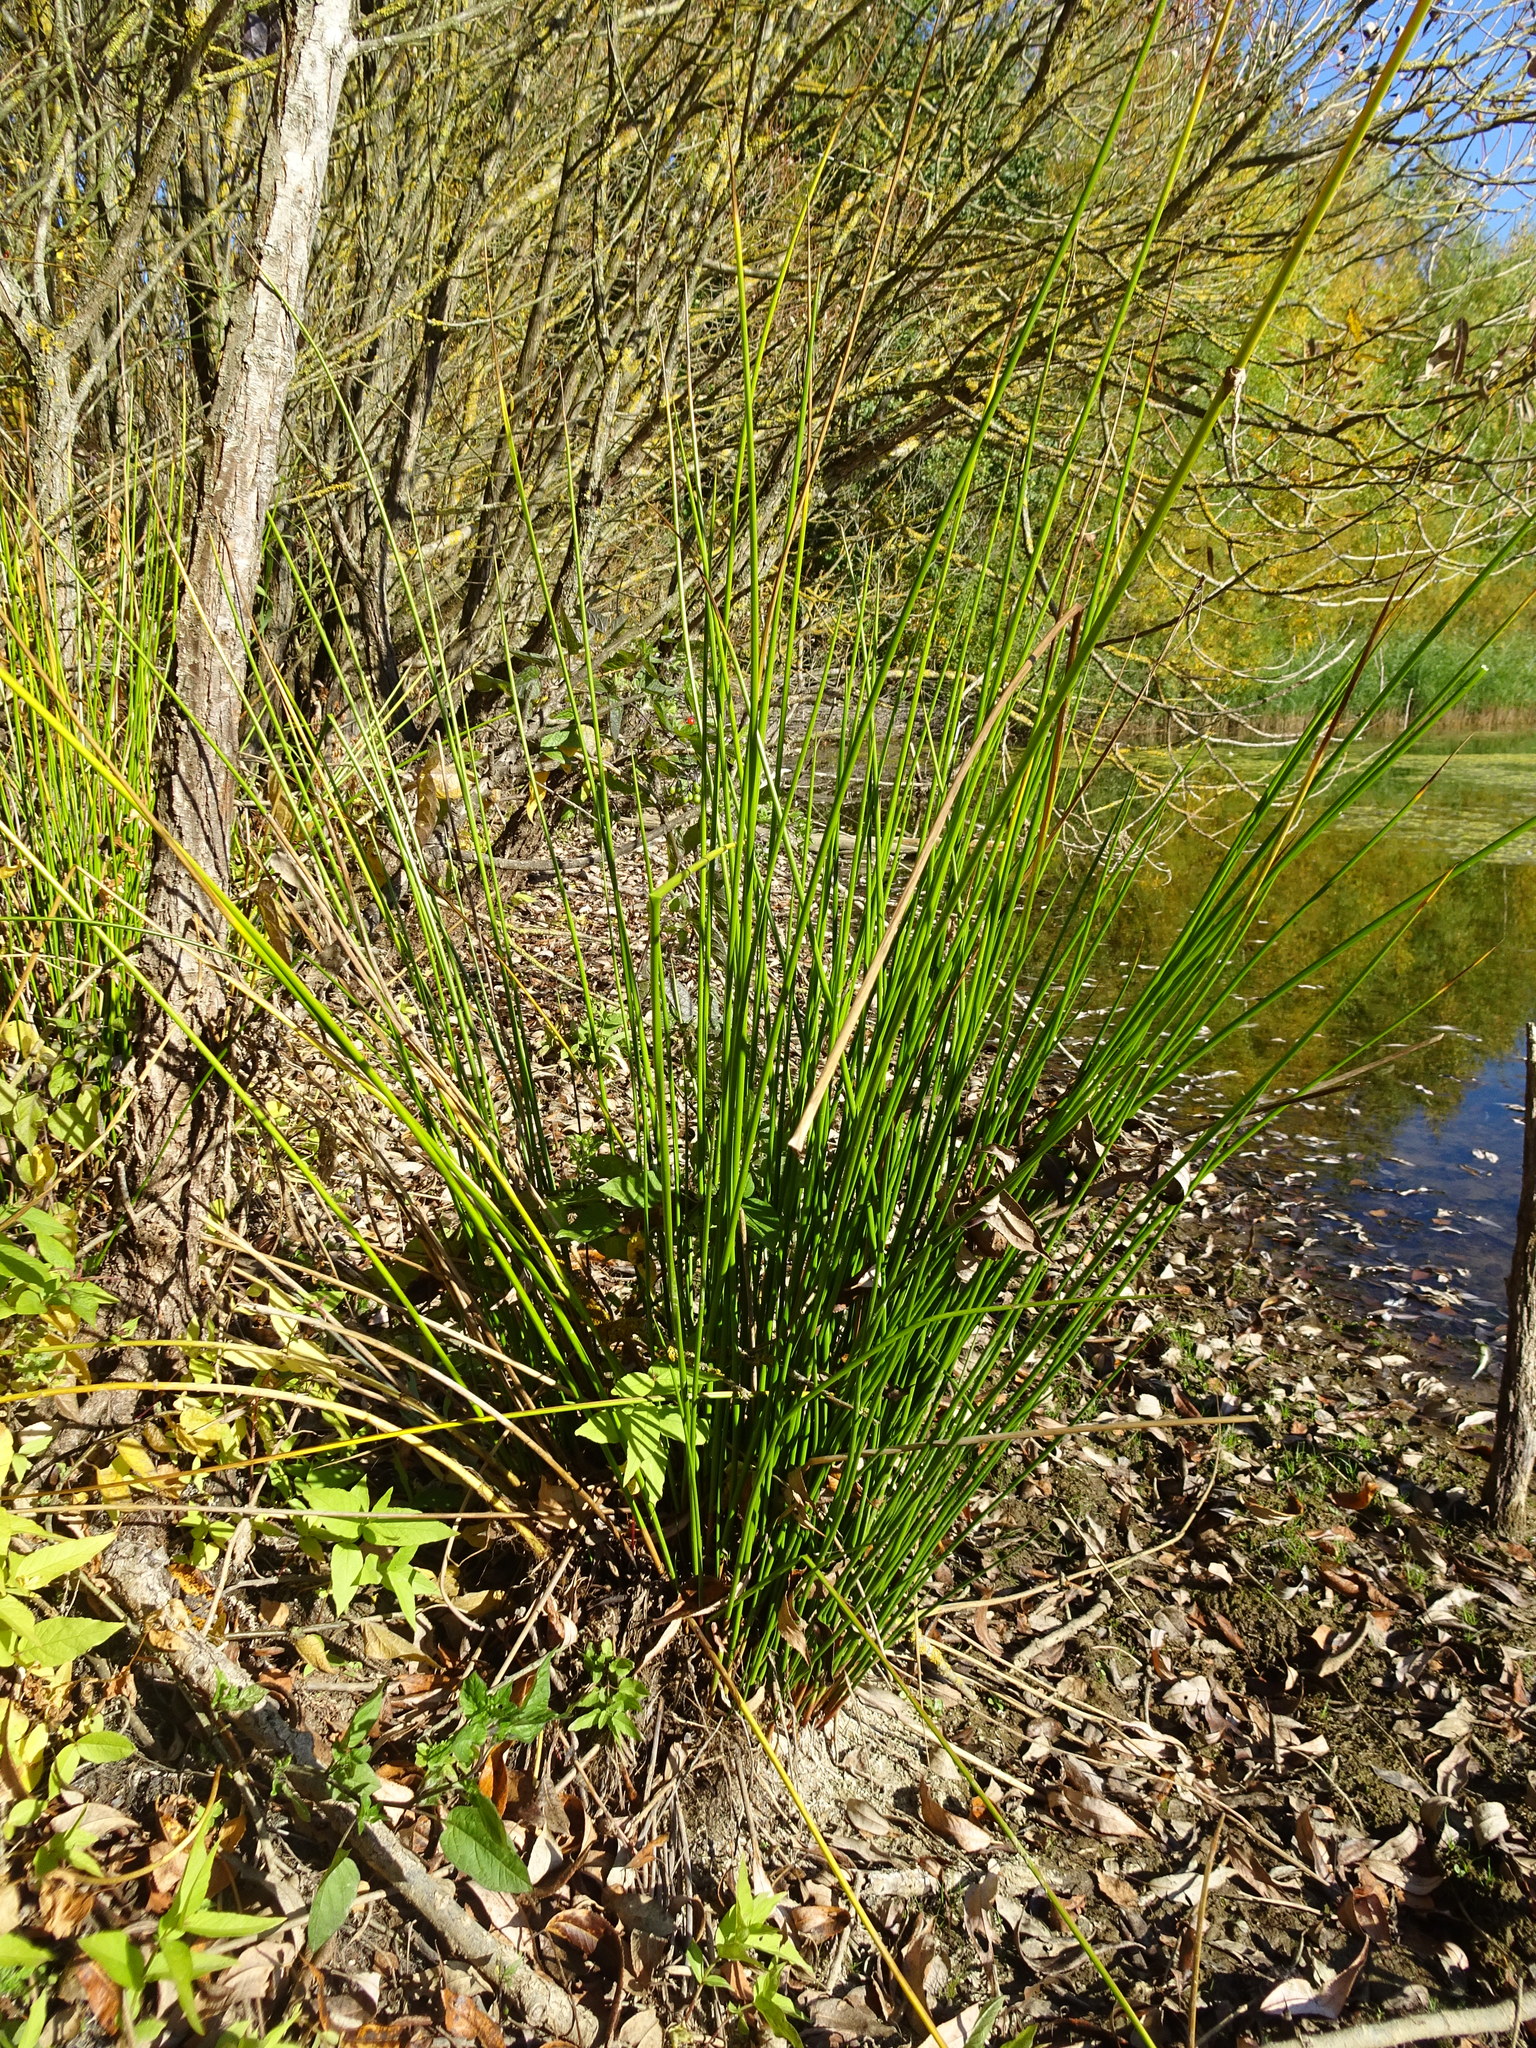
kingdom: Plantae
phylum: Tracheophyta
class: Liliopsida
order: Poales
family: Juncaceae
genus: Juncus
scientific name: Juncus effusus
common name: Soft rush
